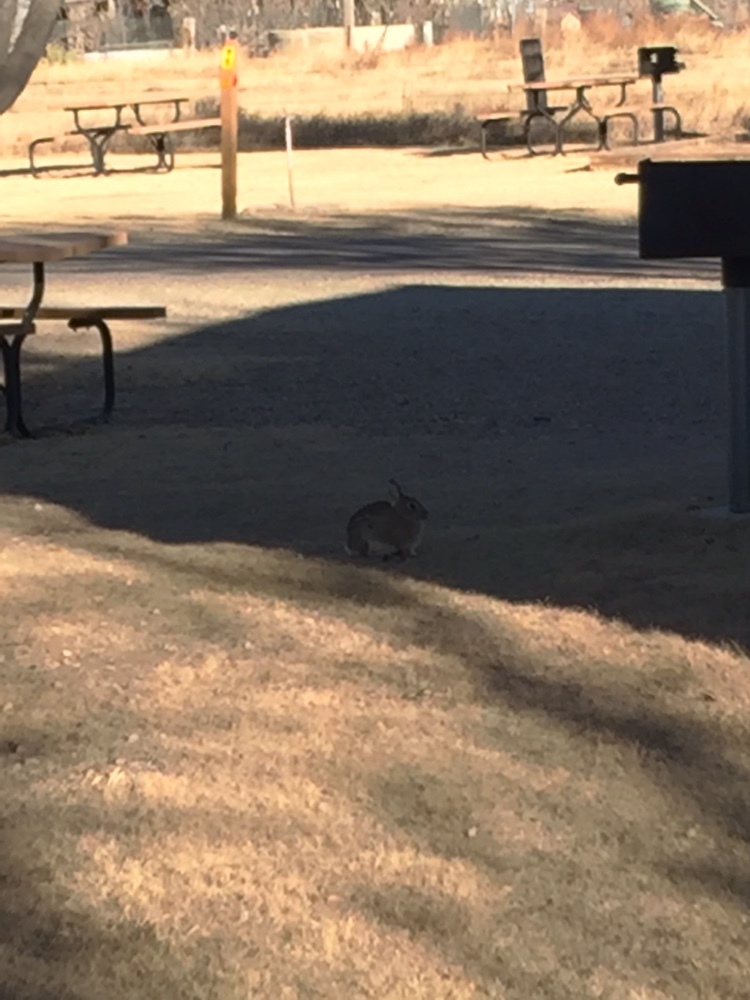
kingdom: Animalia
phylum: Chordata
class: Mammalia
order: Lagomorpha
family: Leporidae
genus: Sylvilagus
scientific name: Sylvilagus audubonii
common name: Desert cottontail
